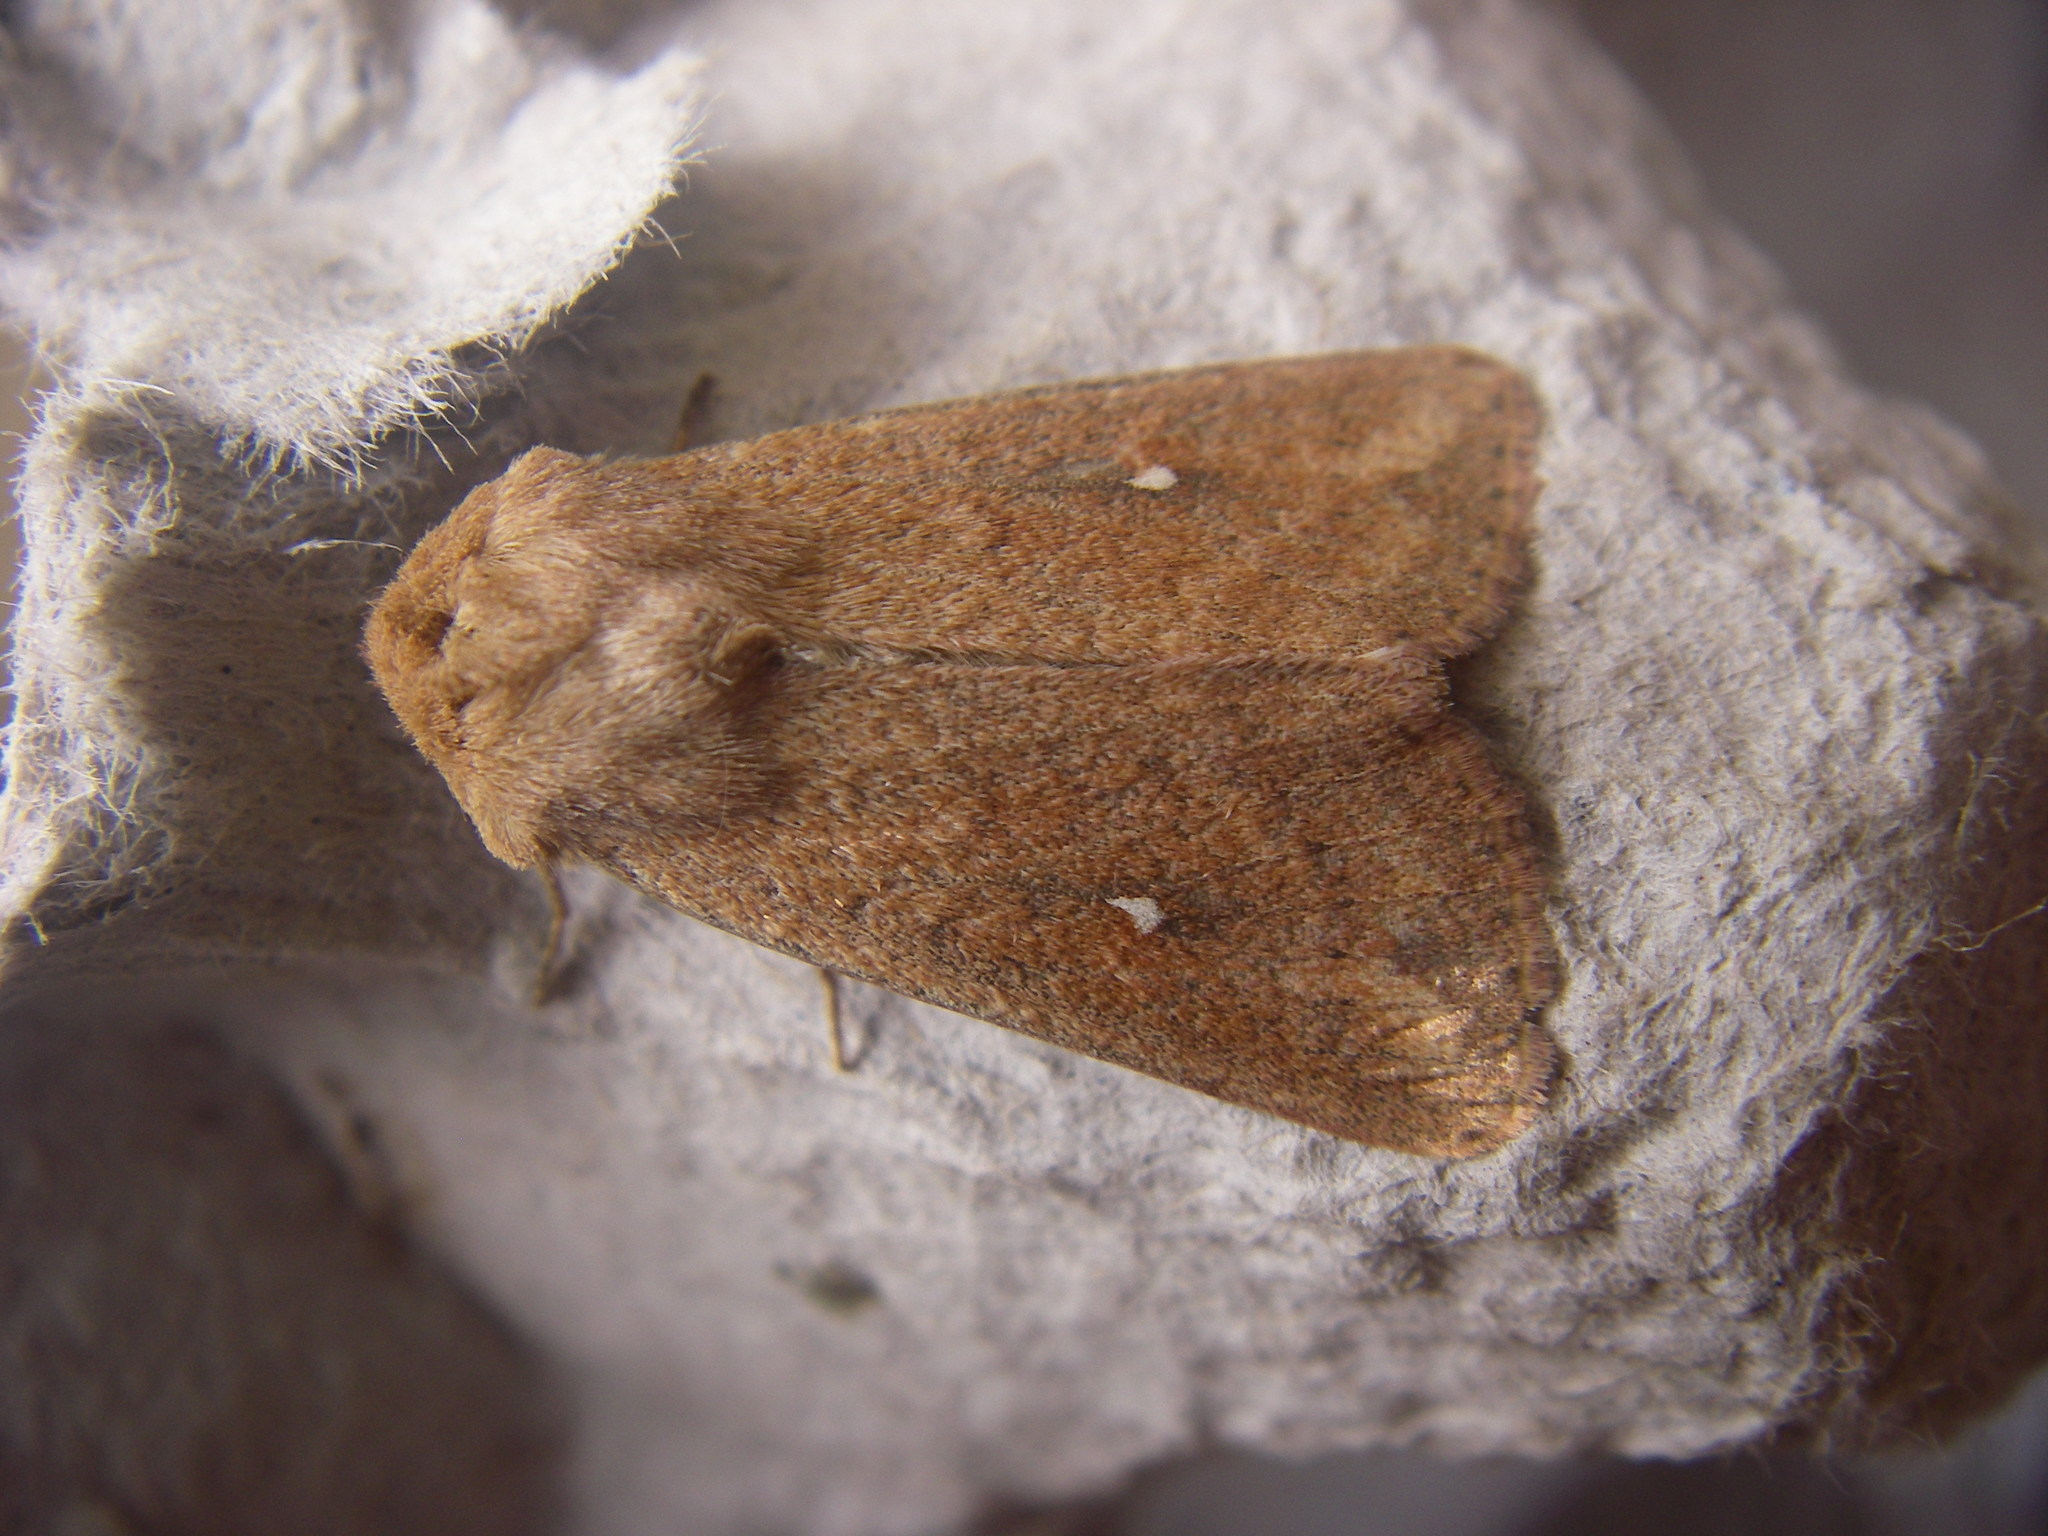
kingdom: Animalia
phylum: Arthropoda
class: Insecta
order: Lepidoptera
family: Noctuidae
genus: Mythimna
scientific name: Mythimna albipuncta
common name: White-point
